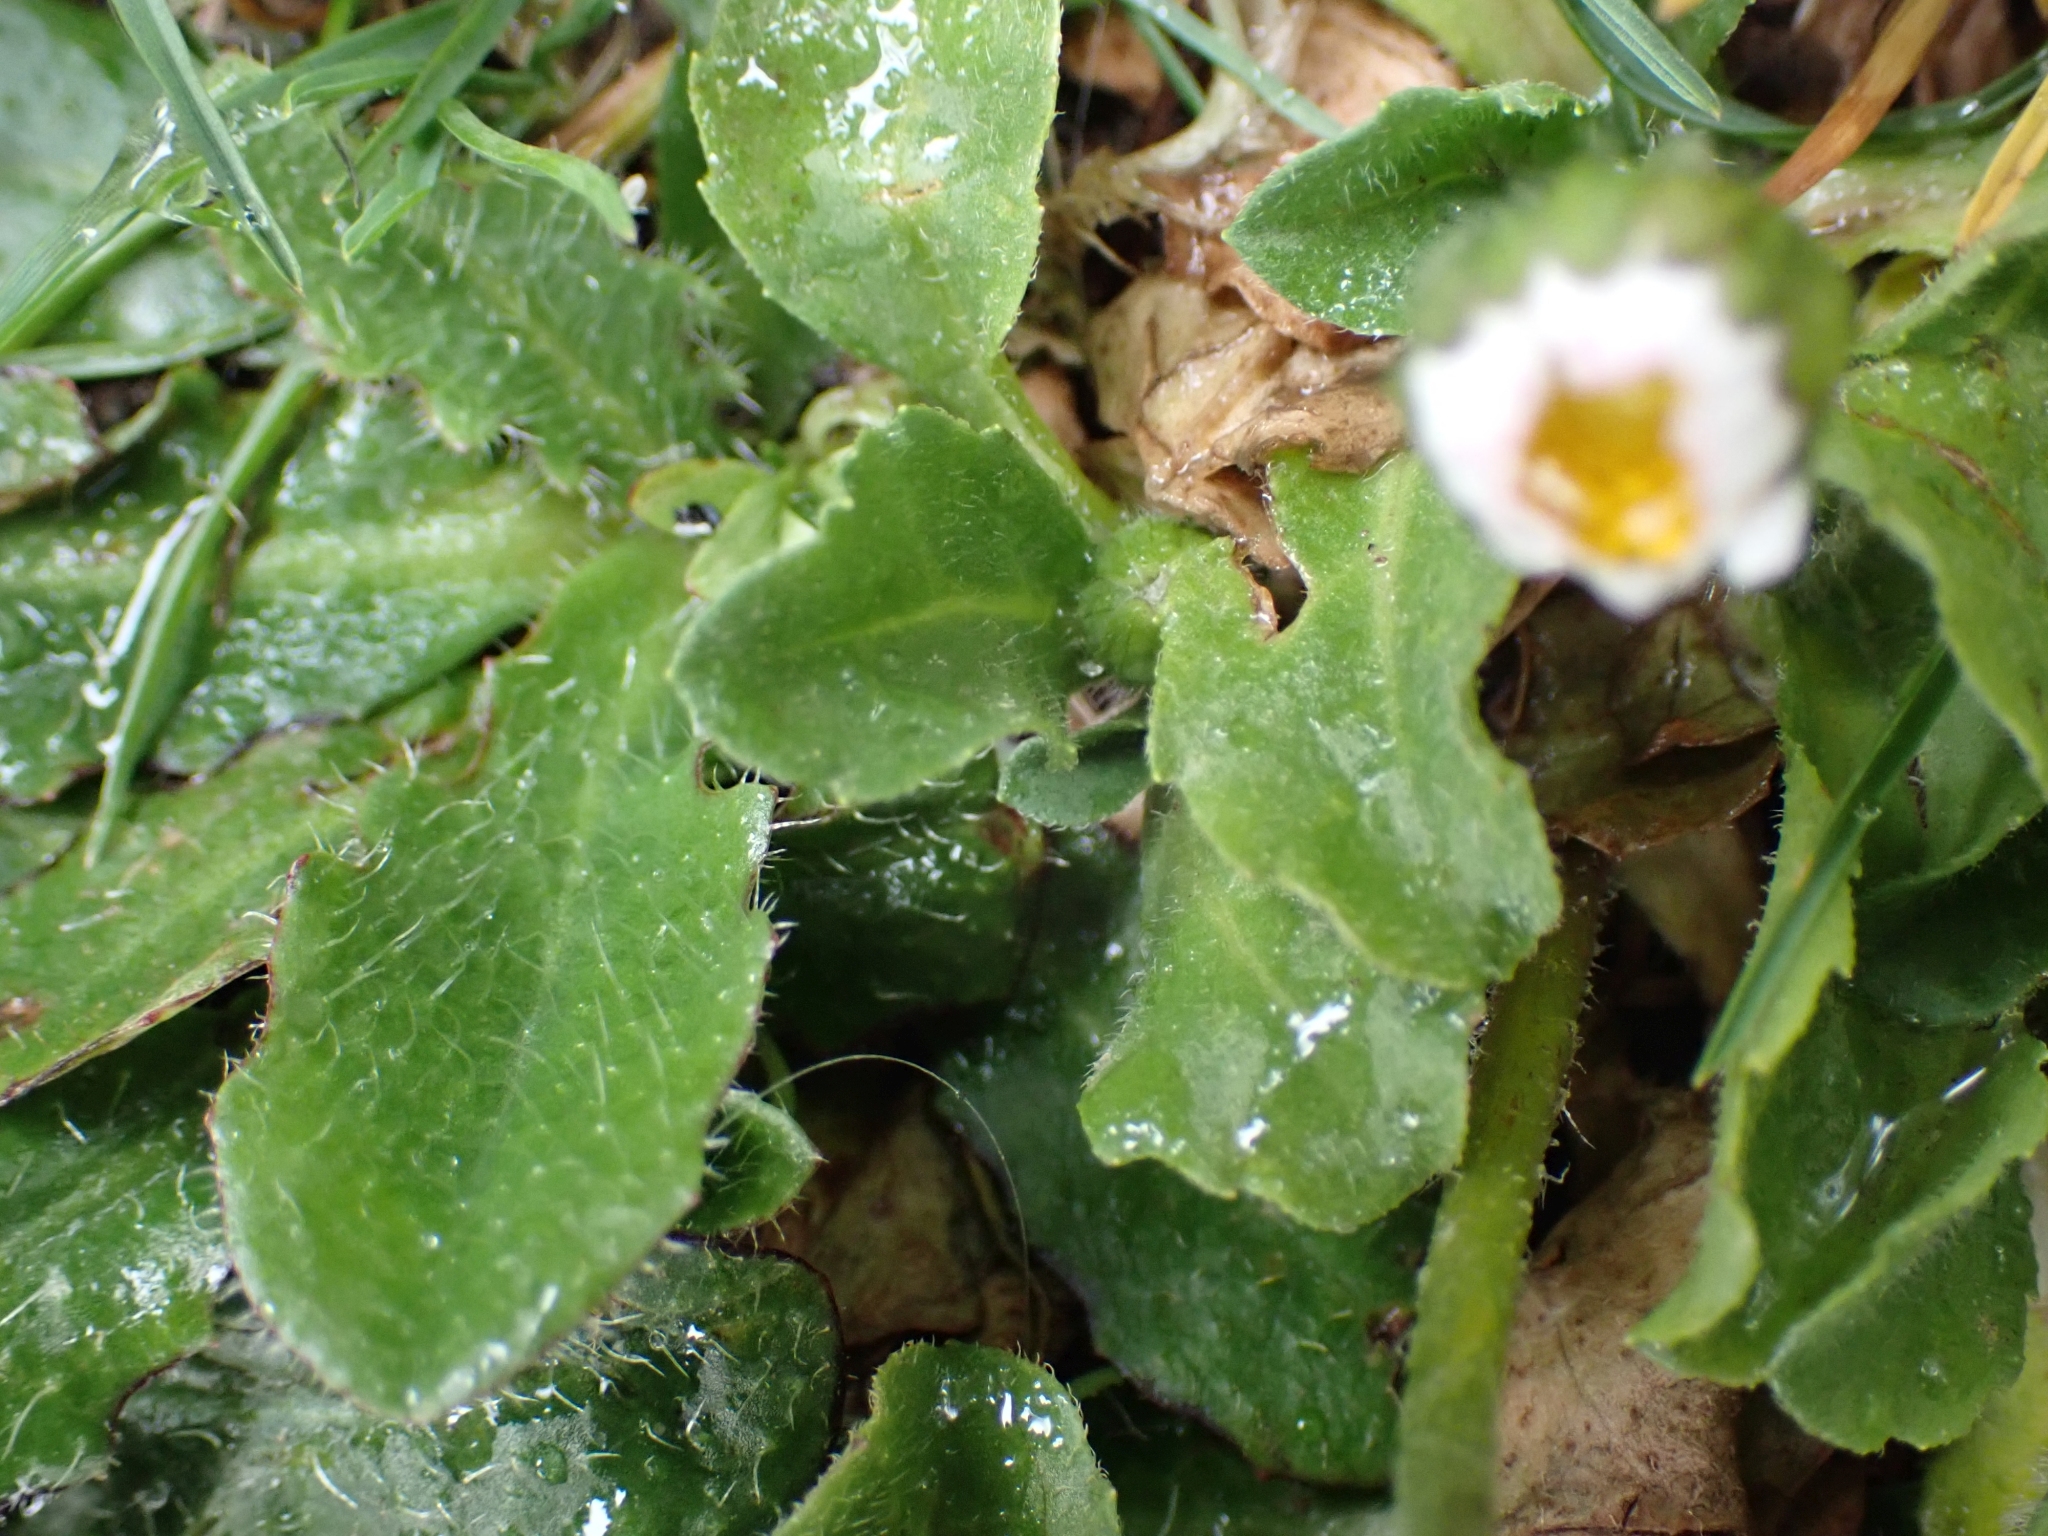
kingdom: Plantae
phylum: Tracheophyta
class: Magnoliopsida
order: Asterales
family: Asteraceae
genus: Bellis
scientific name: Bellis perennis
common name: Lawndaisy
